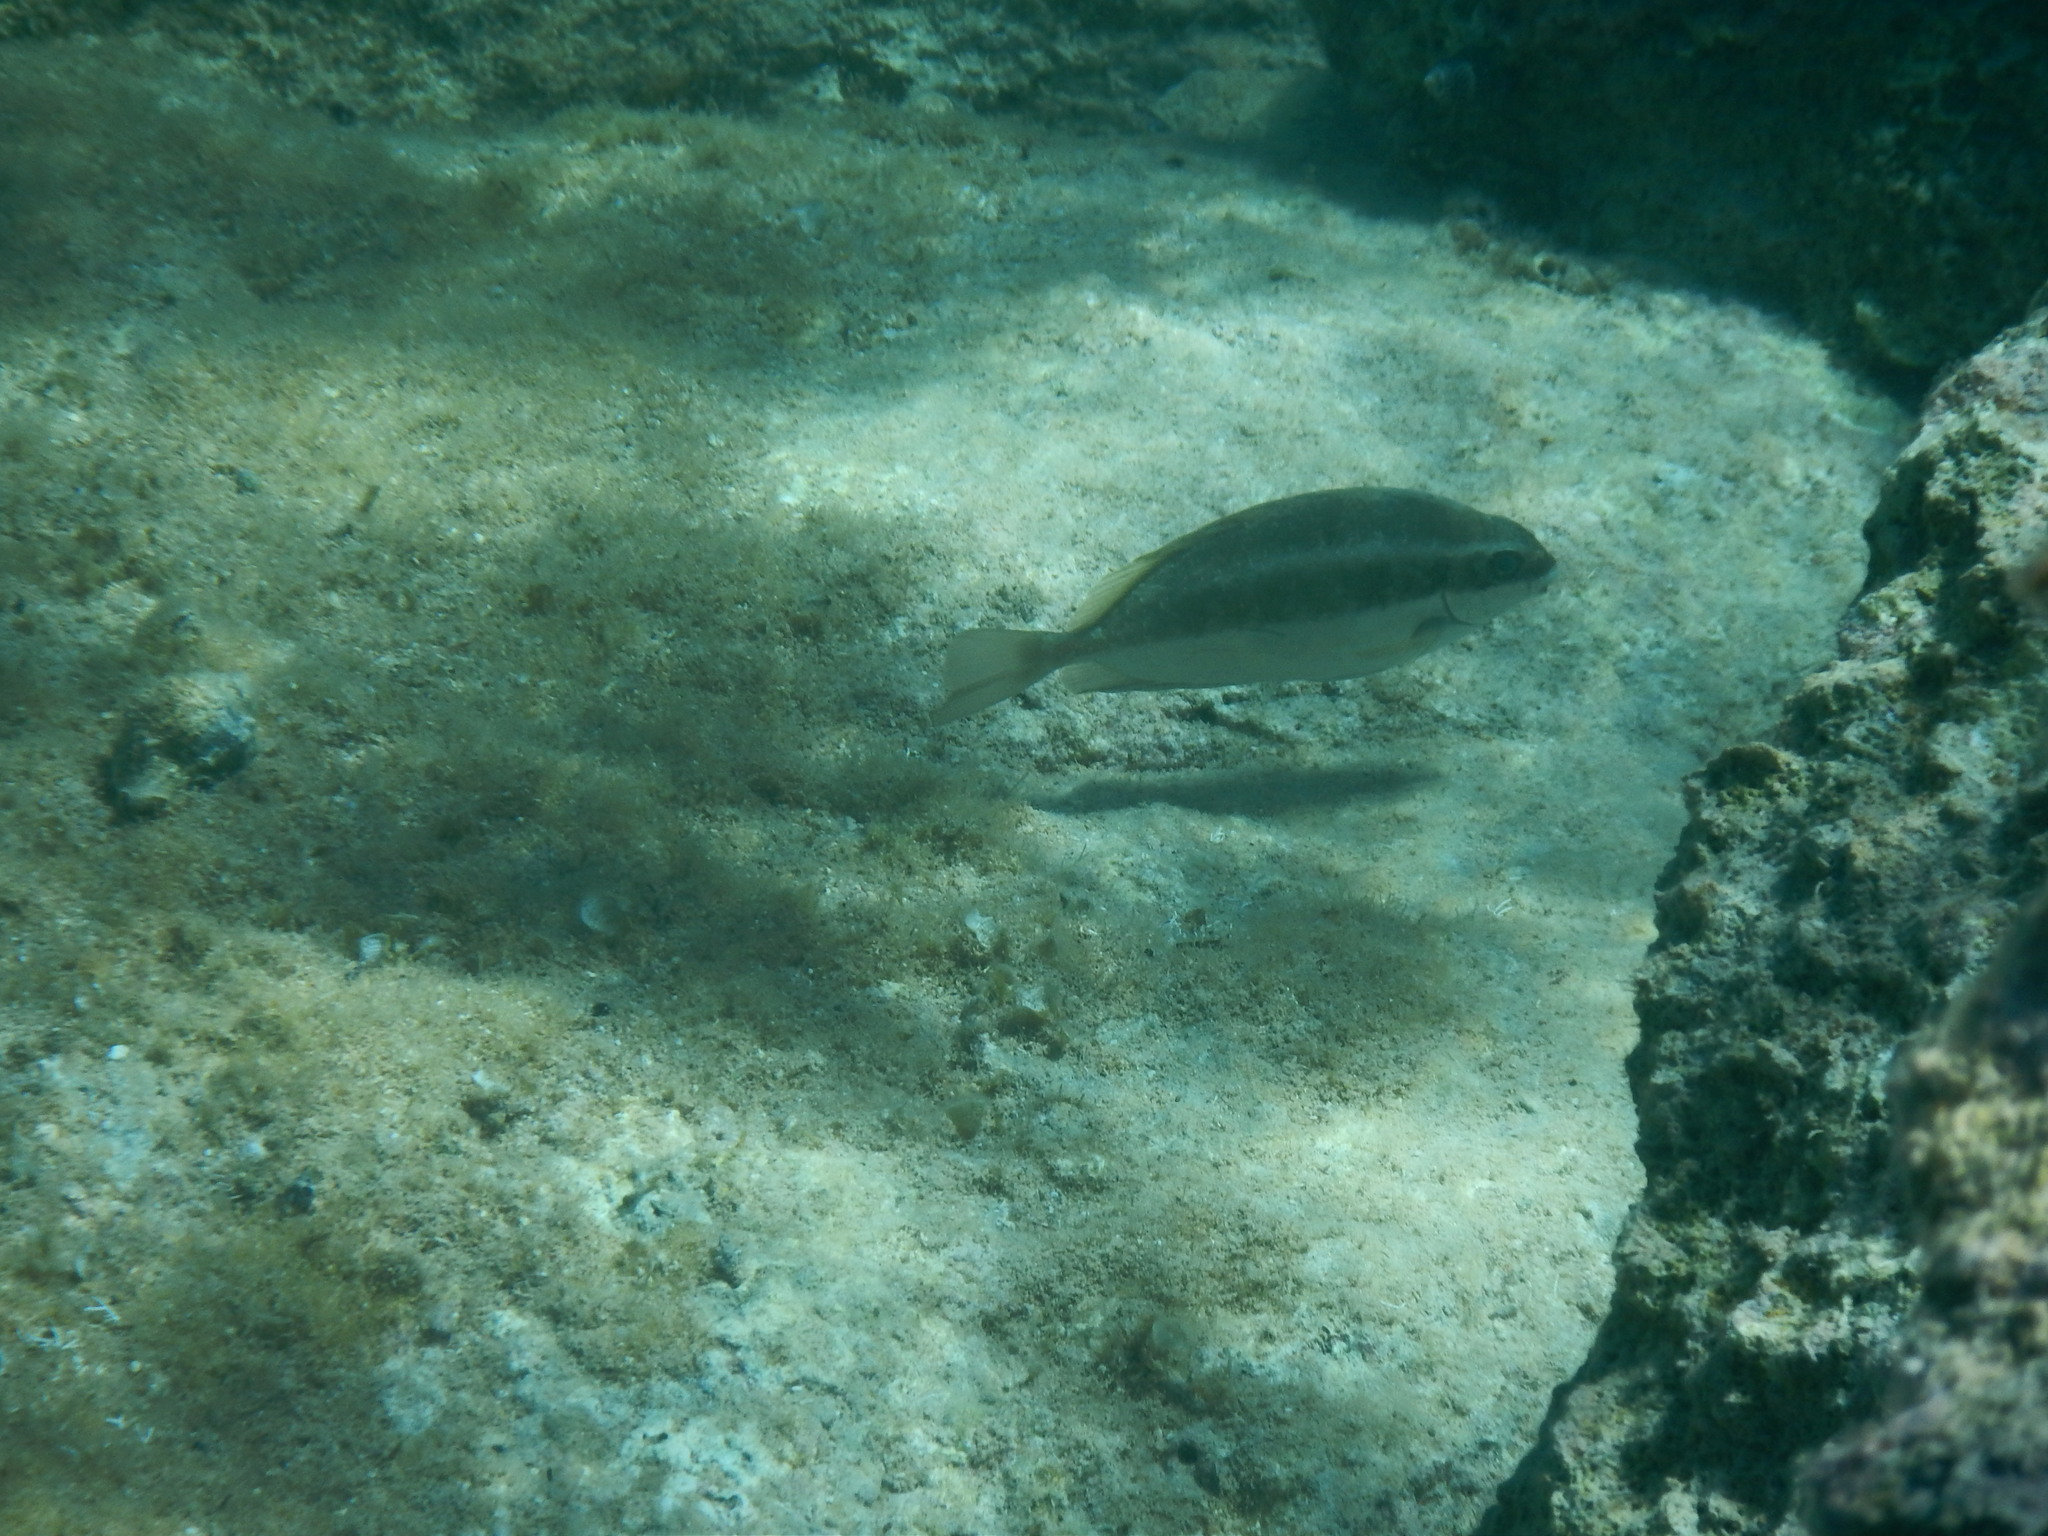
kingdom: Animalia
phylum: Chordata
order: Perciformes
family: Siganidae
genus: Siganus
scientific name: Siganus luridus
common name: Dusky spinefoot
